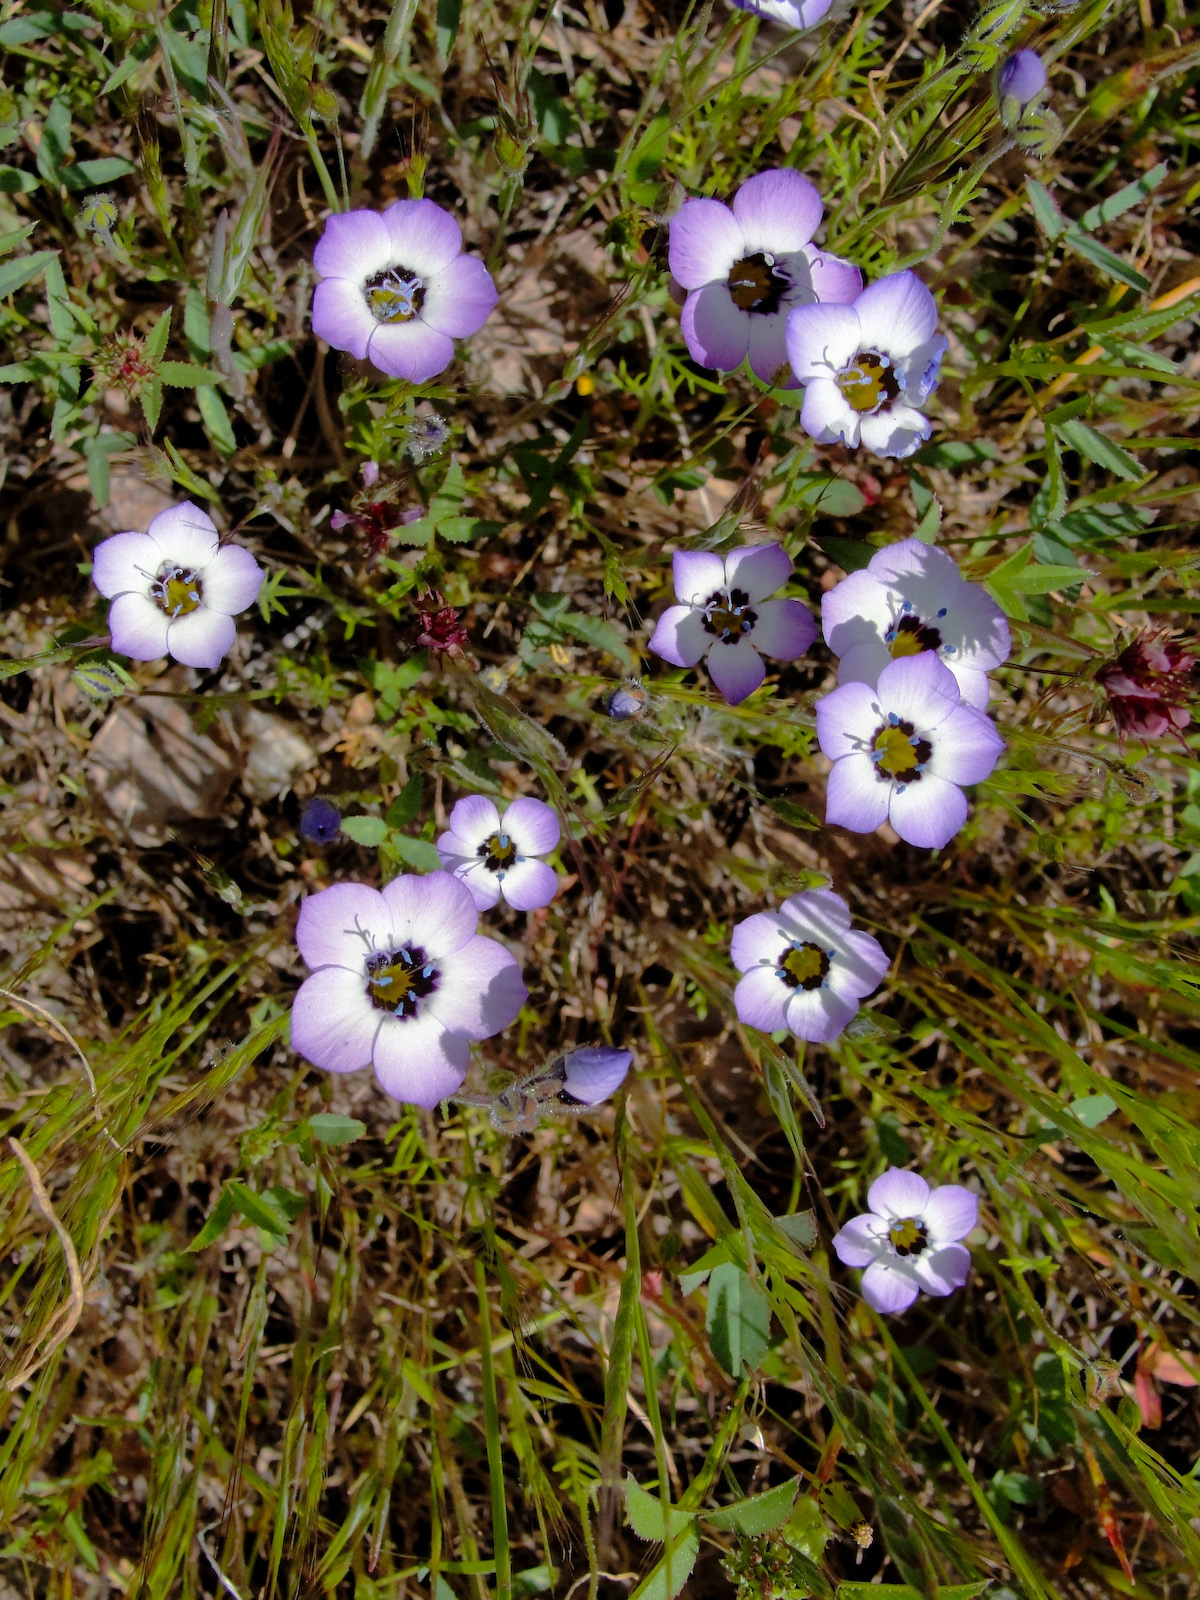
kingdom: Plantae
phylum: Tracheophyta
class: Magnoliopsida
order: Ericales
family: Polemoniaceae
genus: Gilia
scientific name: Gilia tricolor
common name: Bird's-eyes
